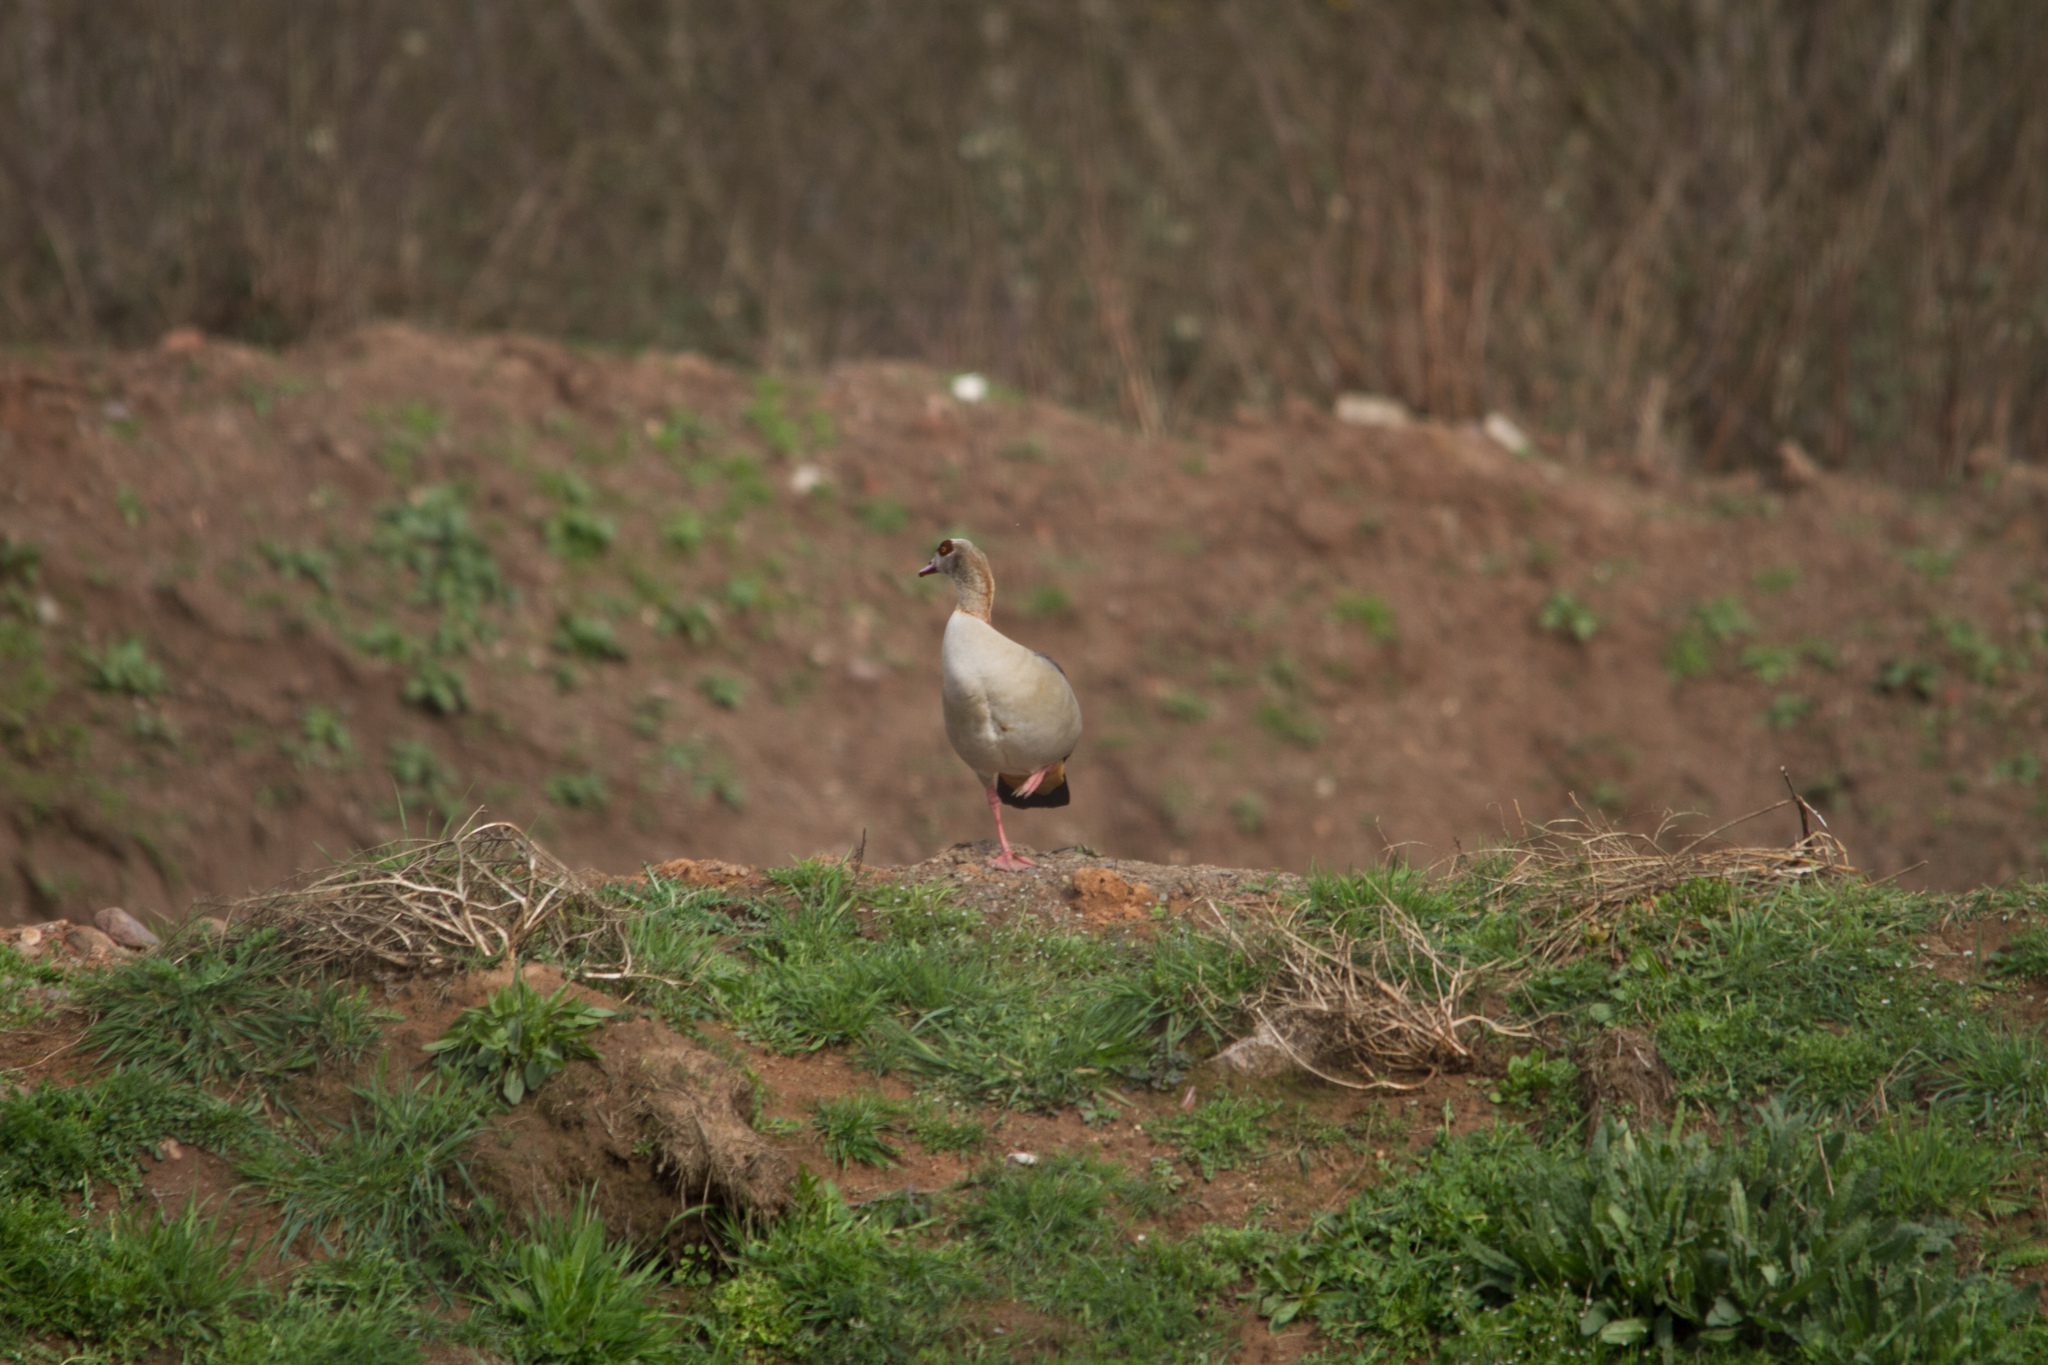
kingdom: Animalia
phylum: Chordata
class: Aves
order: Anseriformes
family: Anatidae
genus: Alopochen
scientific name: Alopochen aegyptiaca
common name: Egyptian goose
